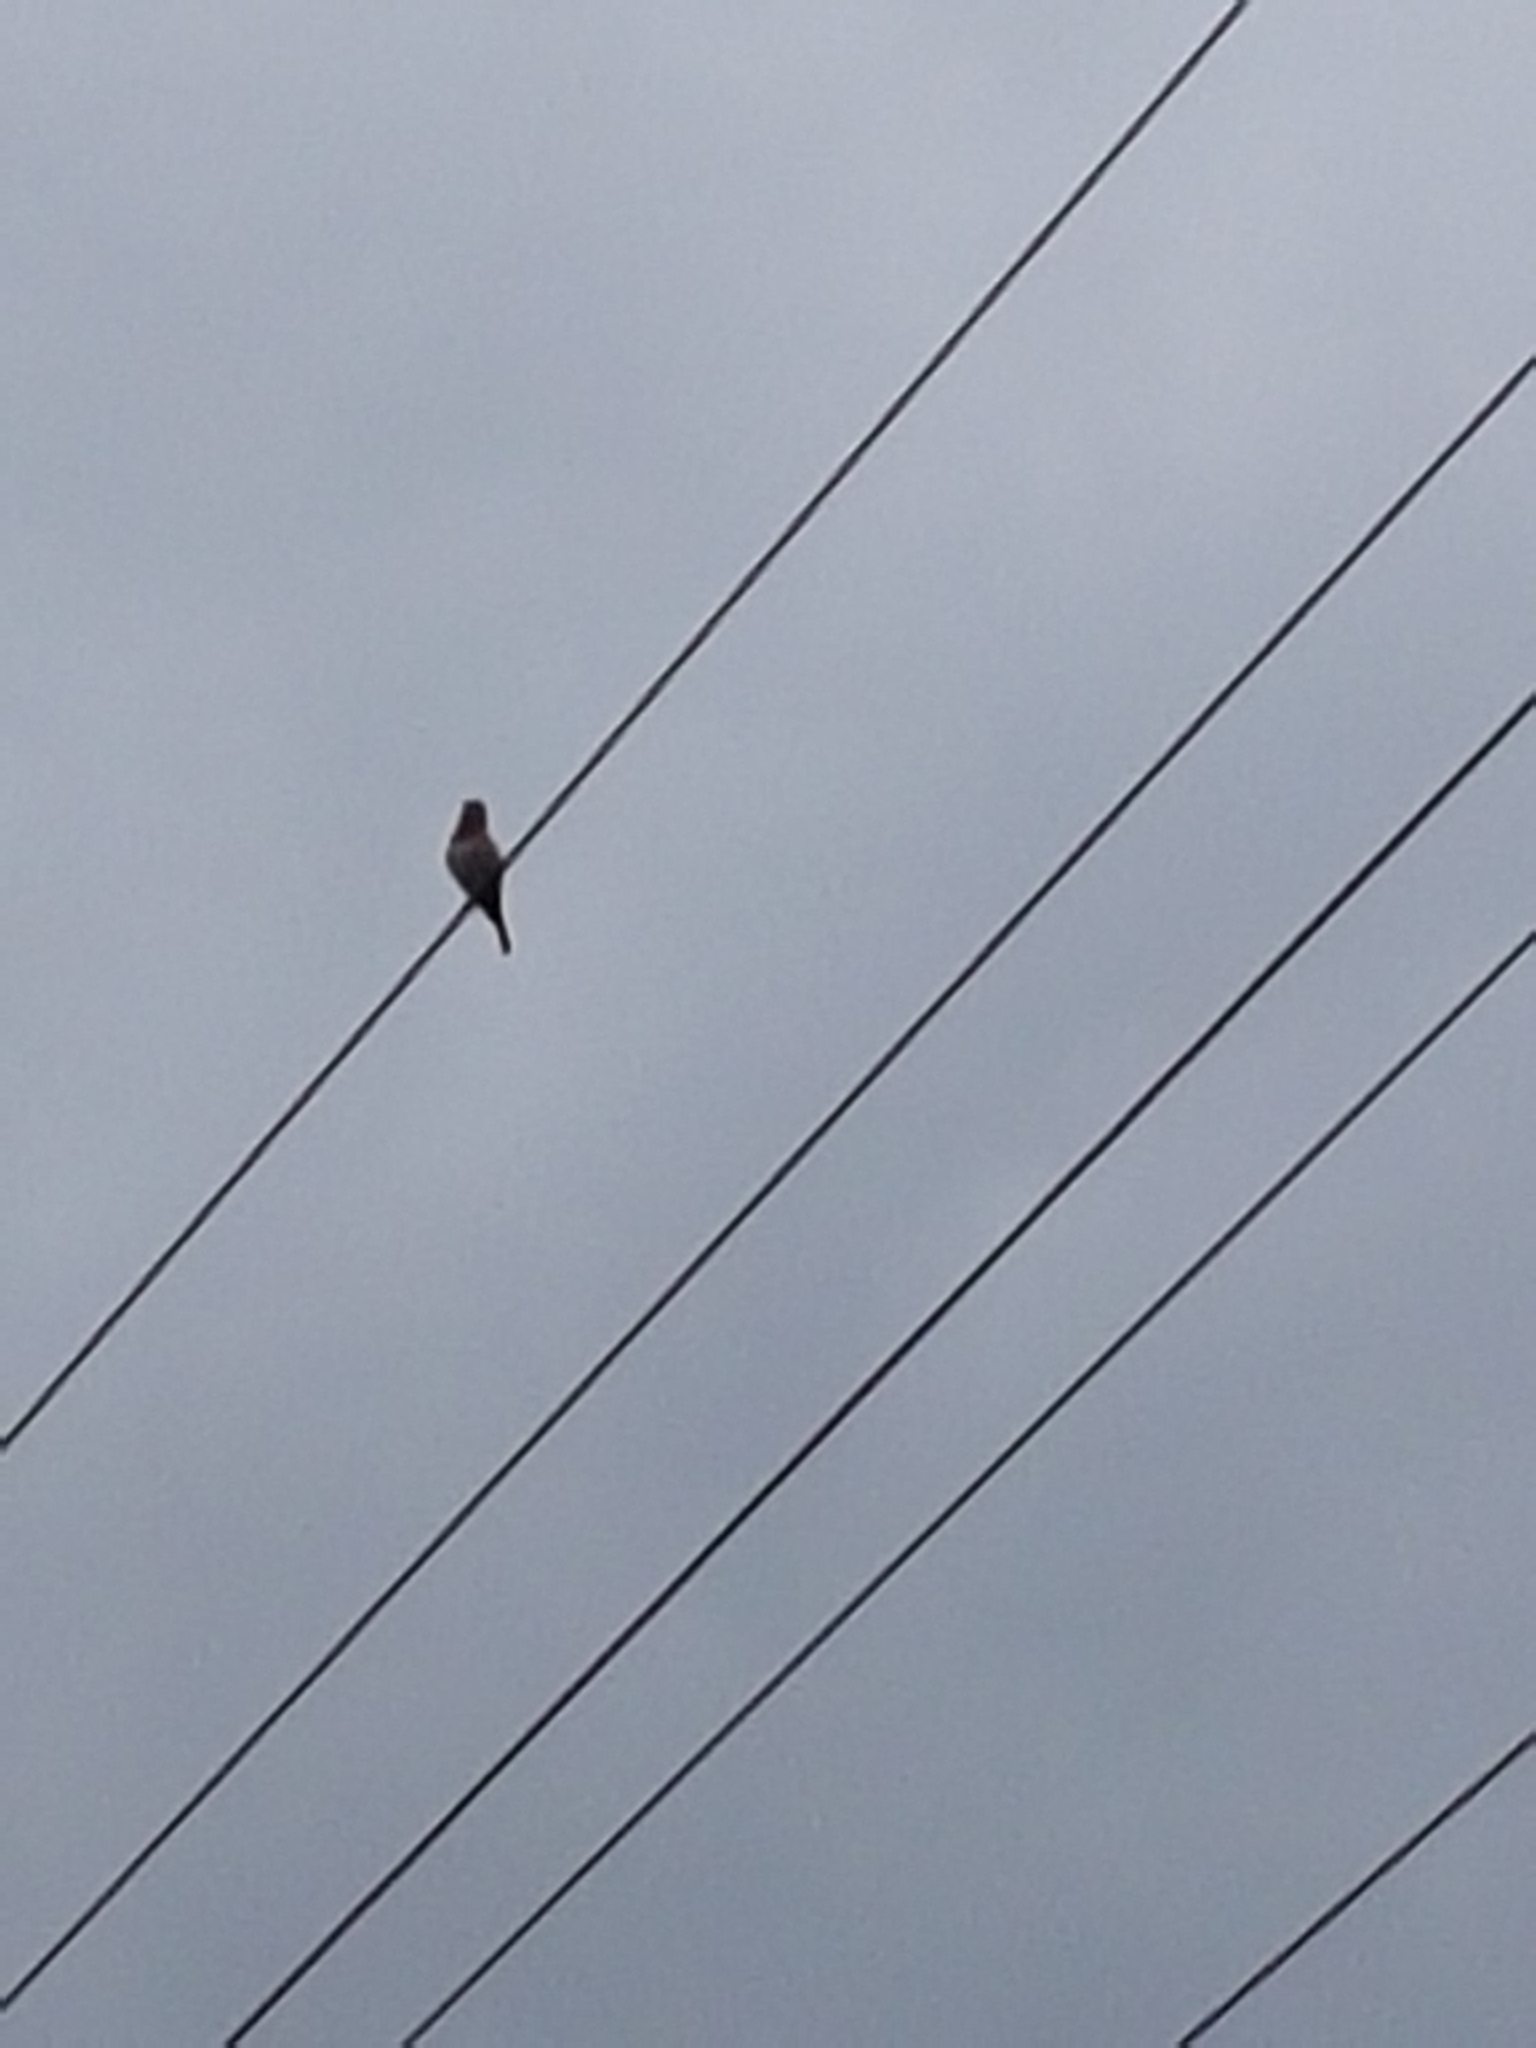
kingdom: Animalia
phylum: Chordata
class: Aves
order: Passeriformes
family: Fringillidae
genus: Carpodacus
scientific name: Carpodacus erythrinus
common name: Common rosefinch
